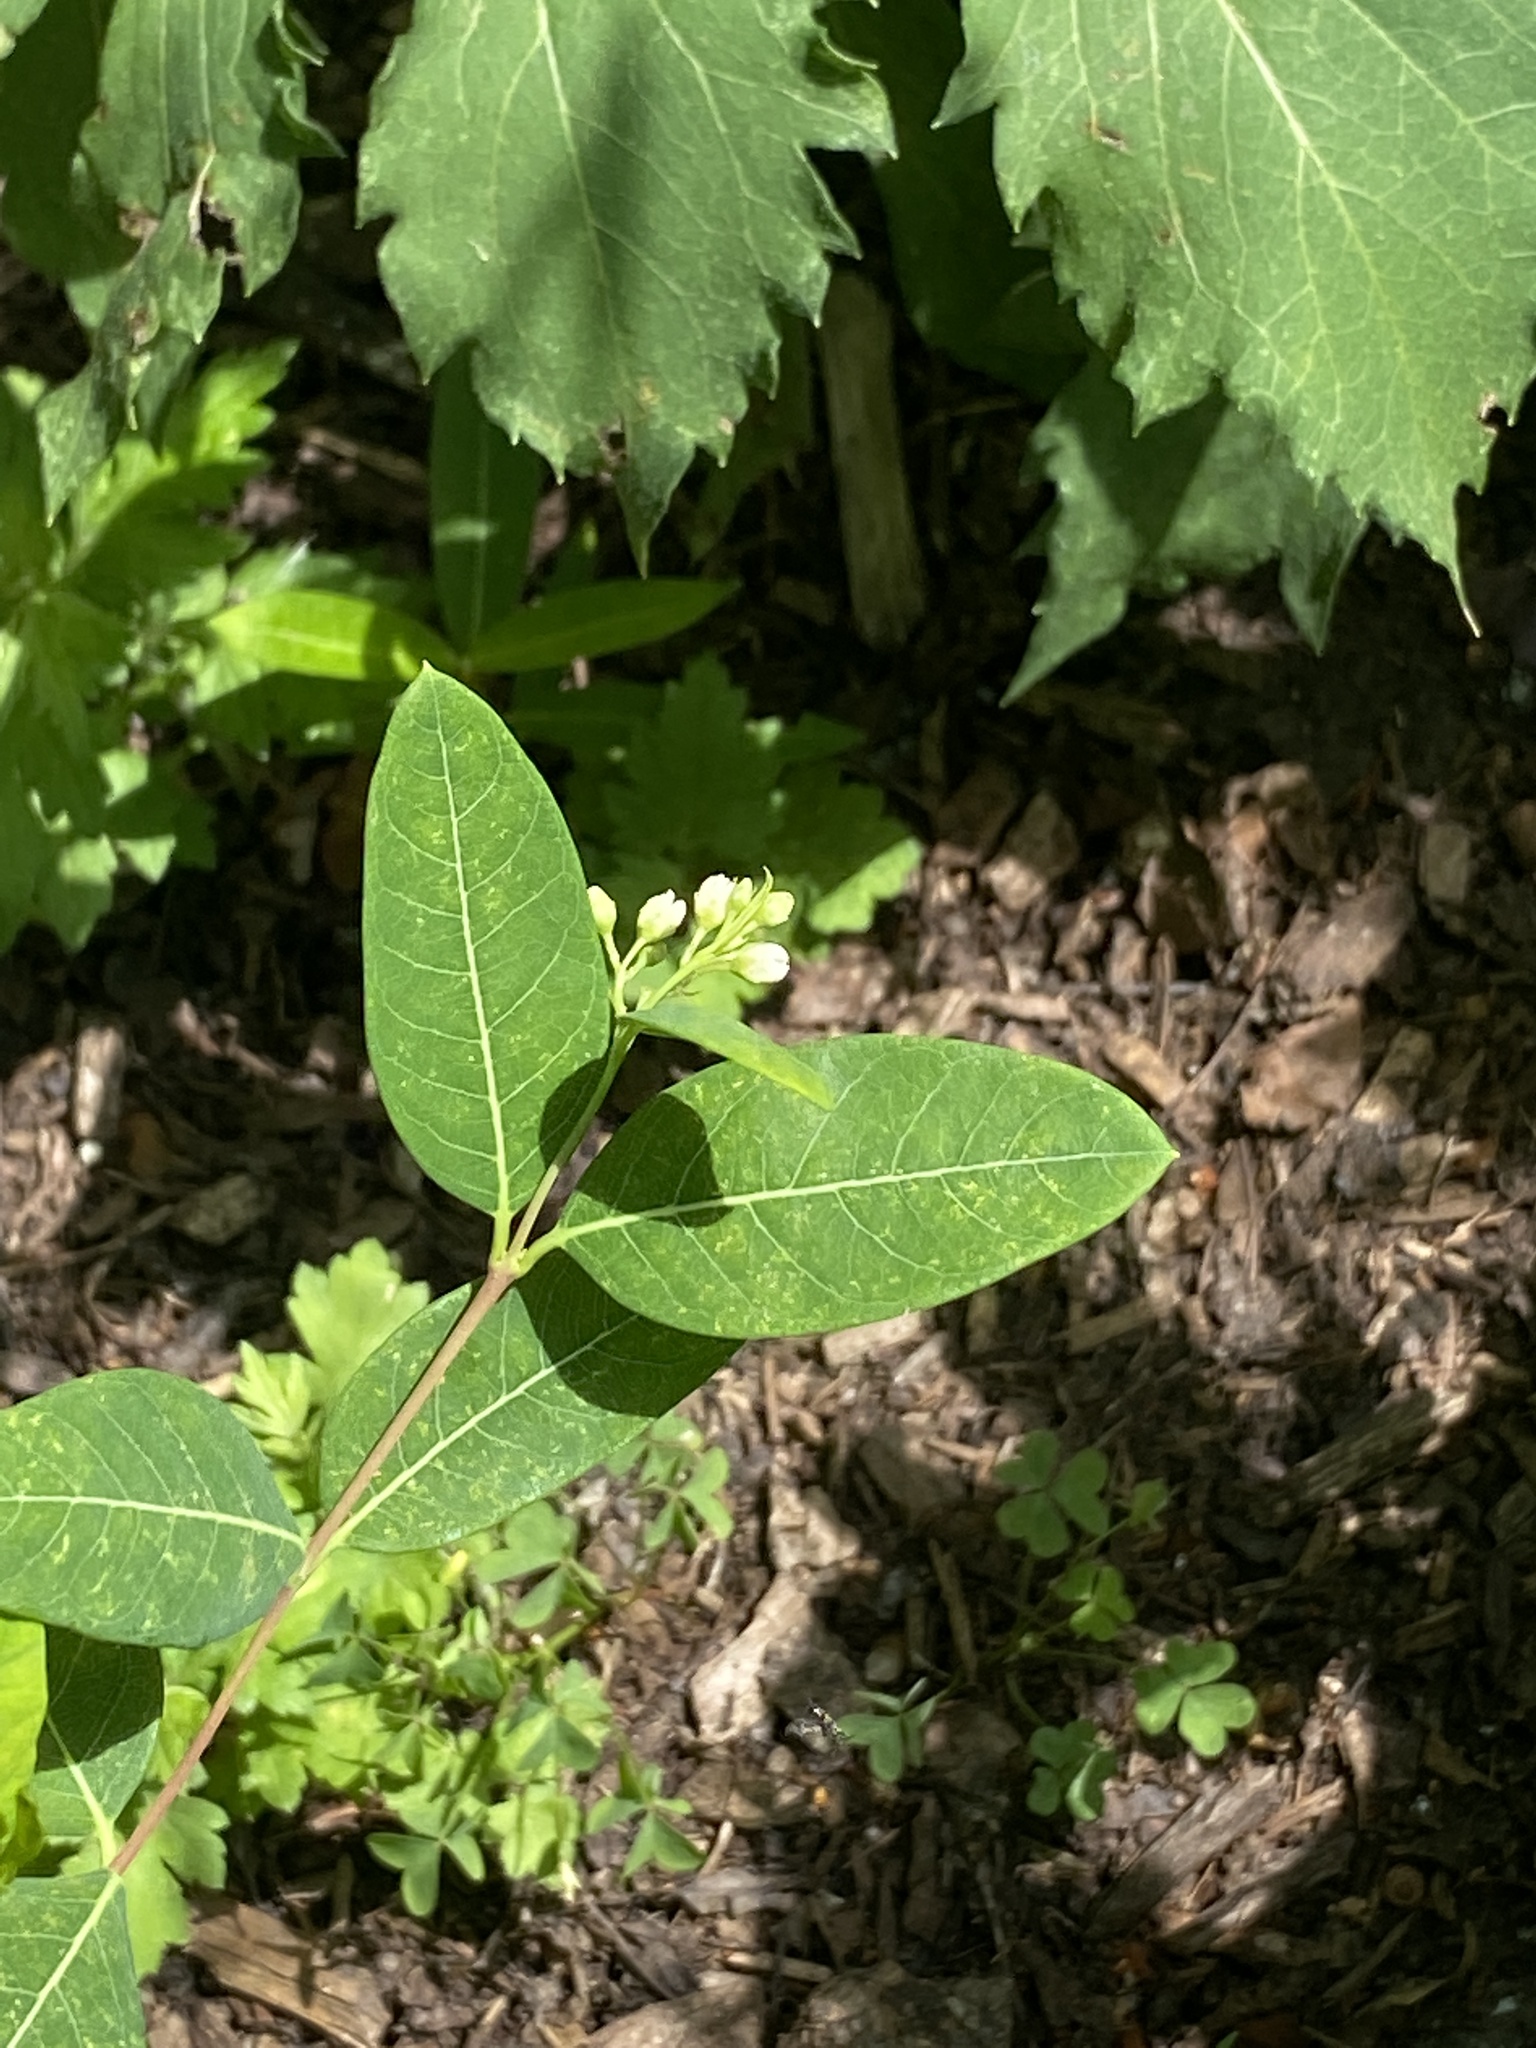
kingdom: Plantae
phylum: Tracheophyta
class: Magnoliopsida
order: Gentianales
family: Apocynaceae
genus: Apocynum
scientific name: Apocynum cannabinum
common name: Hemp dogbane
